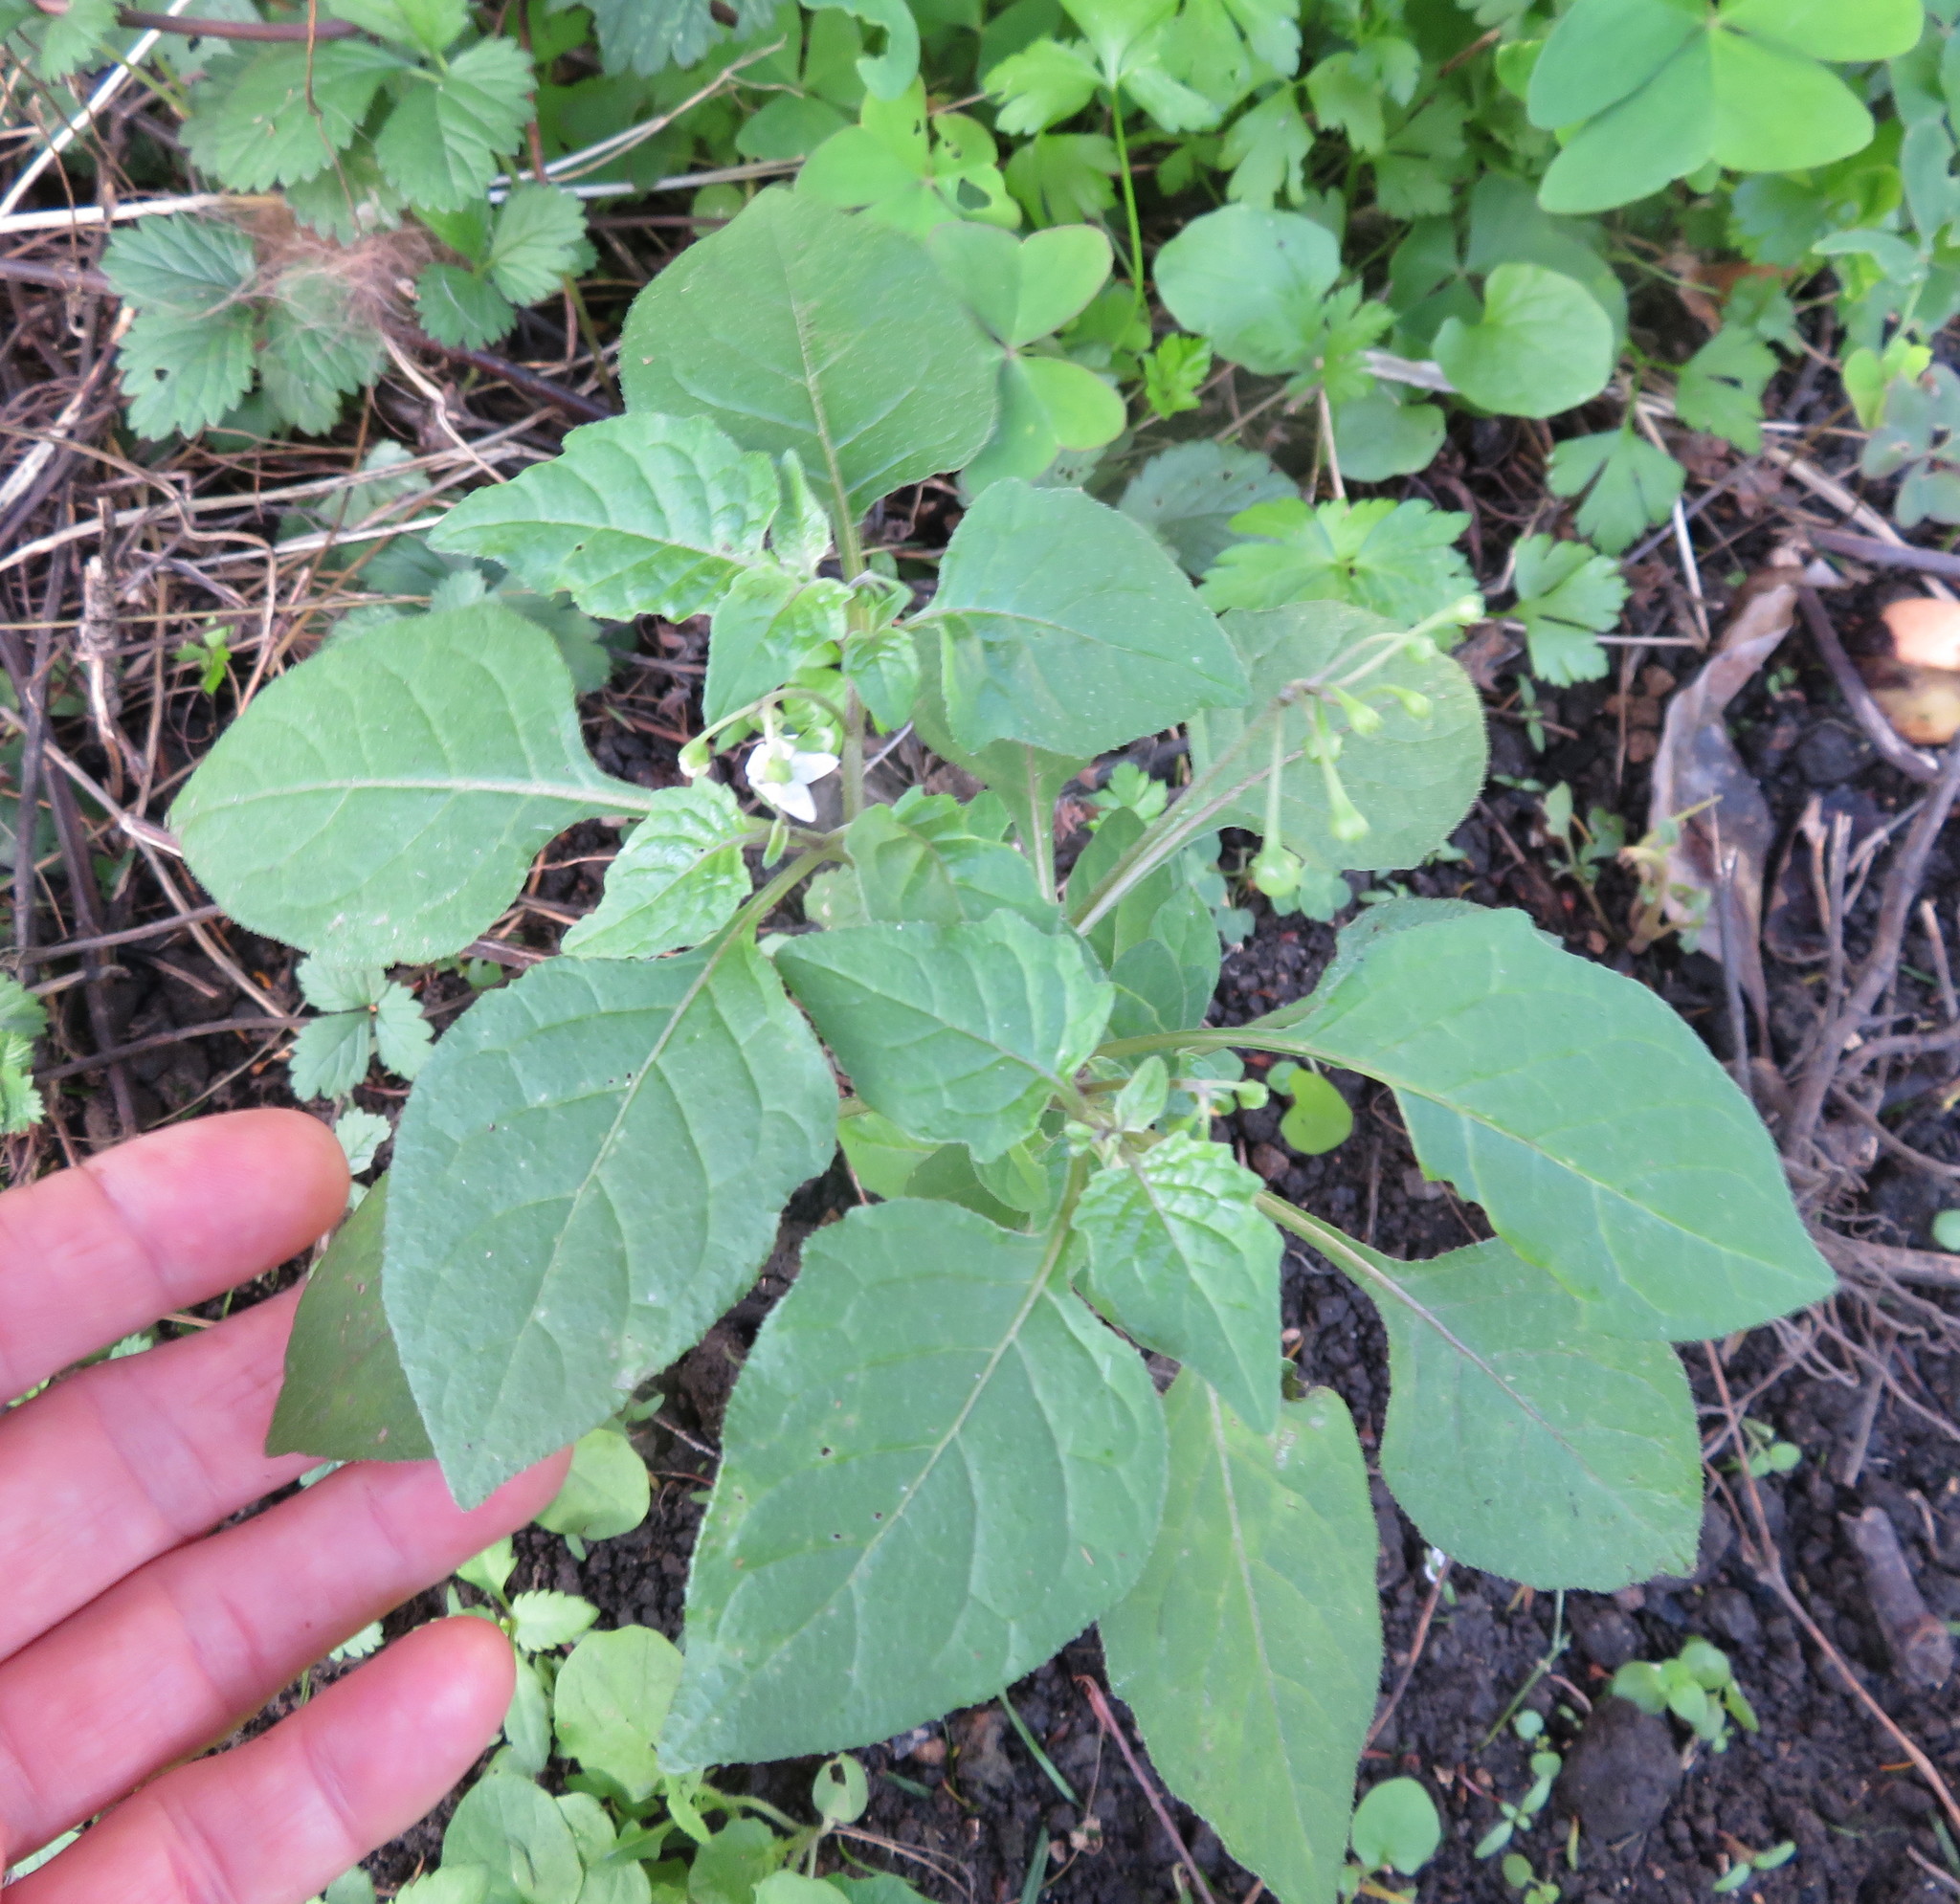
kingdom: Plantae
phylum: Tracheophyta
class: Magnoliopsida
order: Solanales
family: Solanaceae
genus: Solanum
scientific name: Solanum nigrum
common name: Black nightshade
